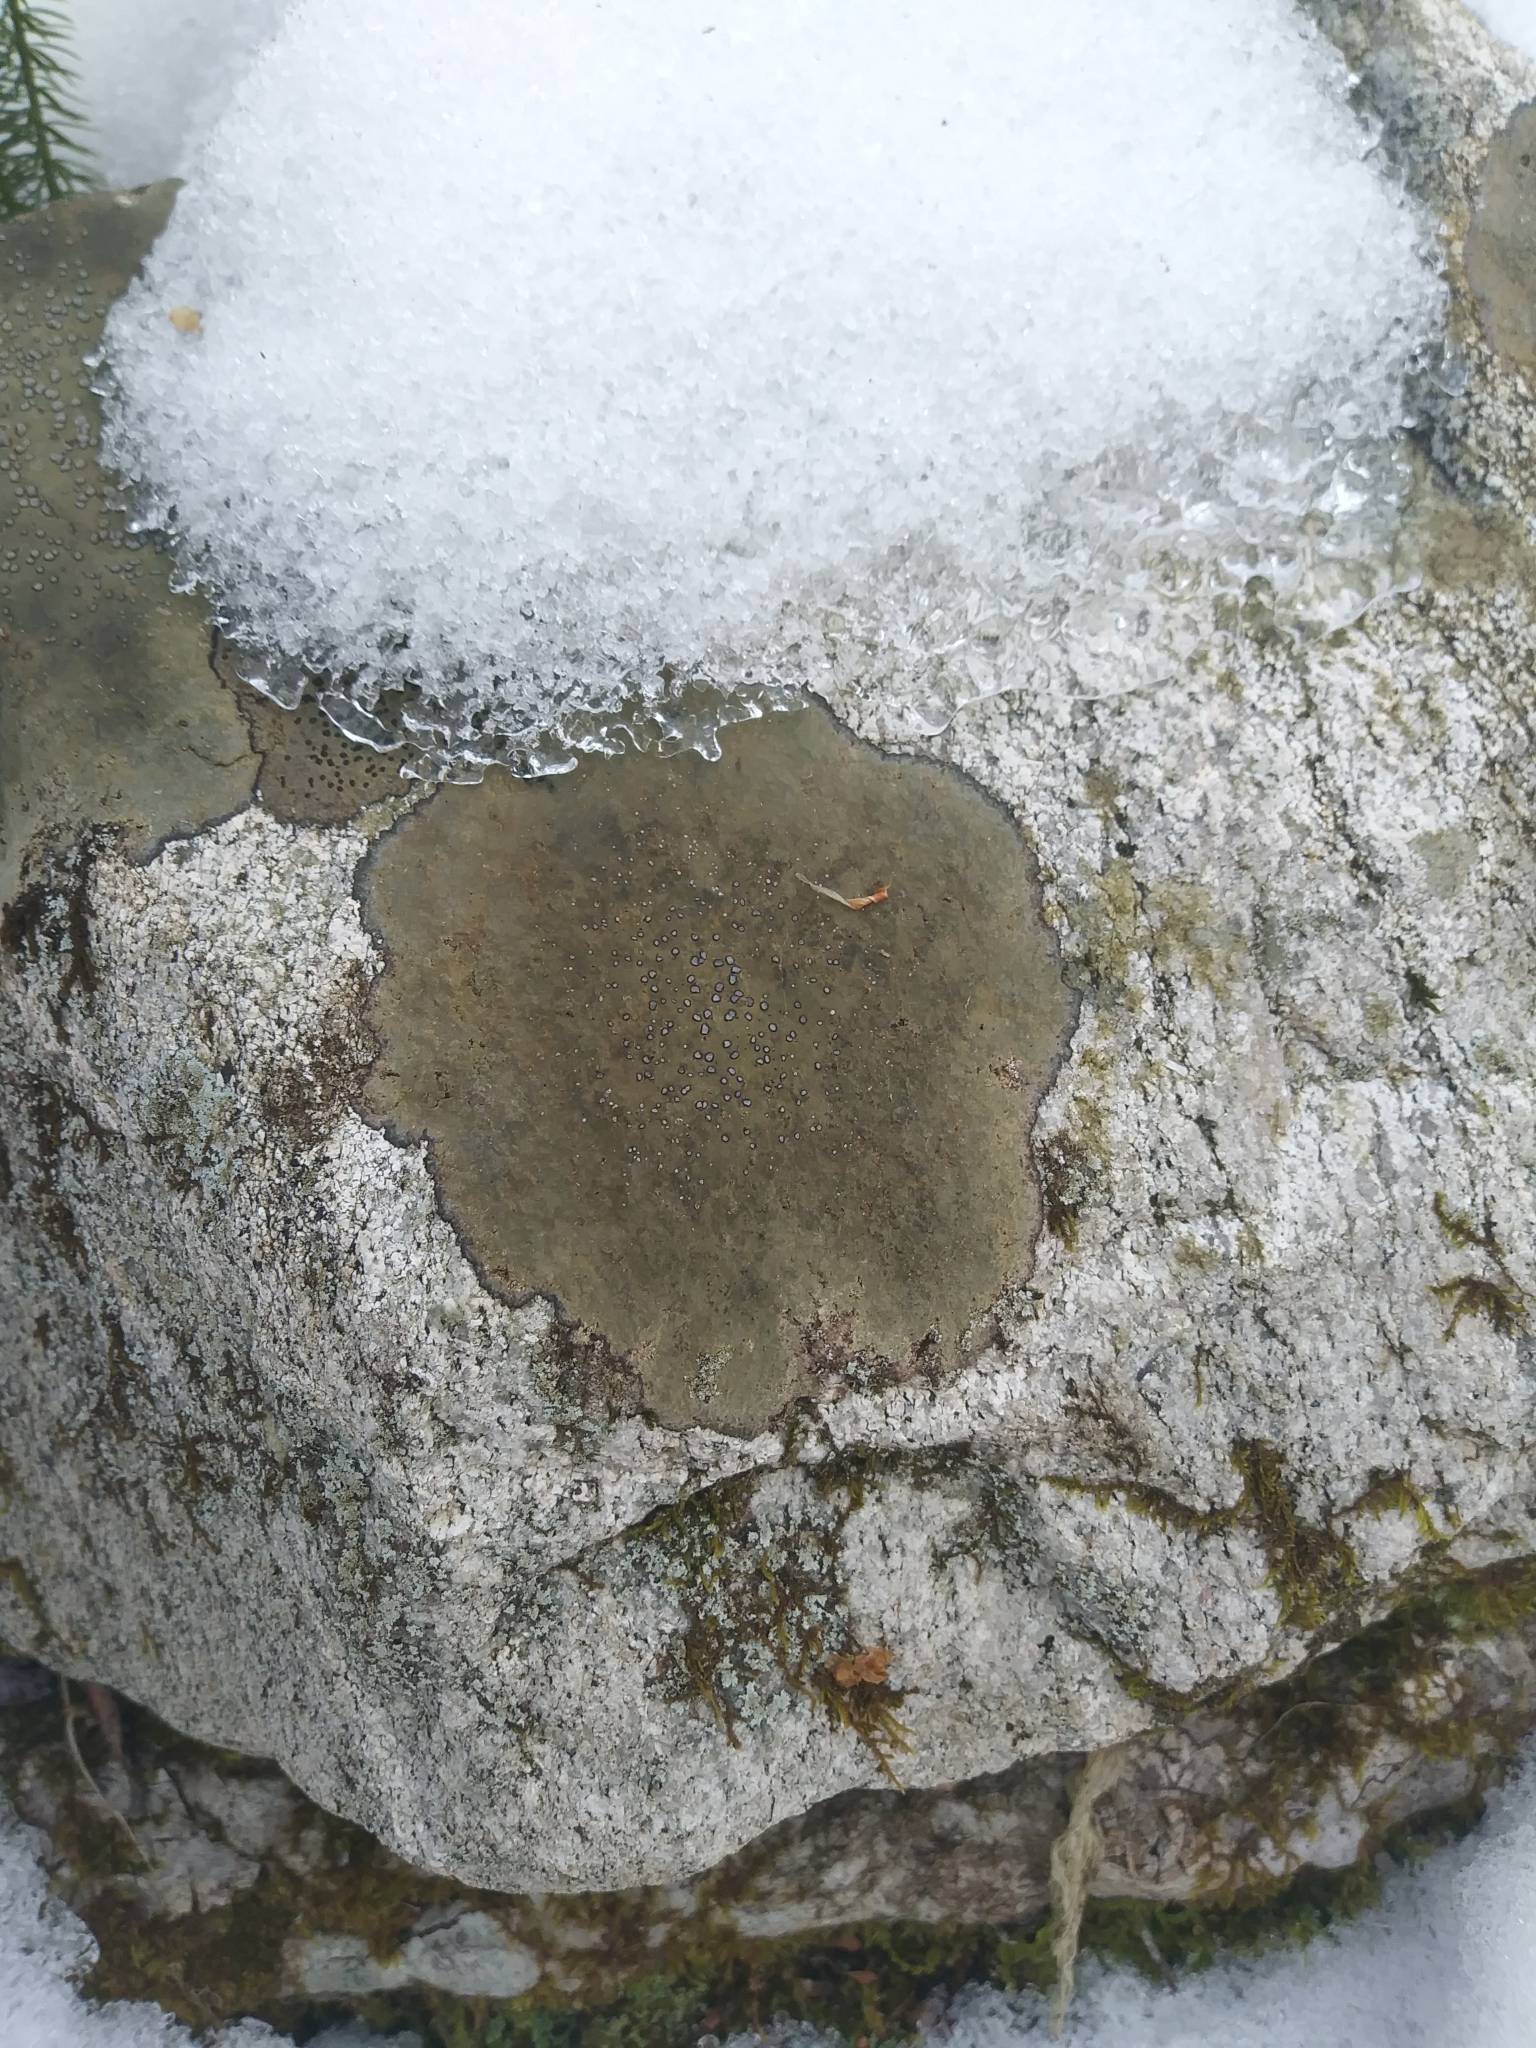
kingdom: Fungi
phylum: Ascomycota
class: Lecanoromycetes
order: Lecideales
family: Lecideaceae
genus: Porpidia
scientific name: Porpidia albocaerulescens
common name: Smokey-eyed boulder lichen
